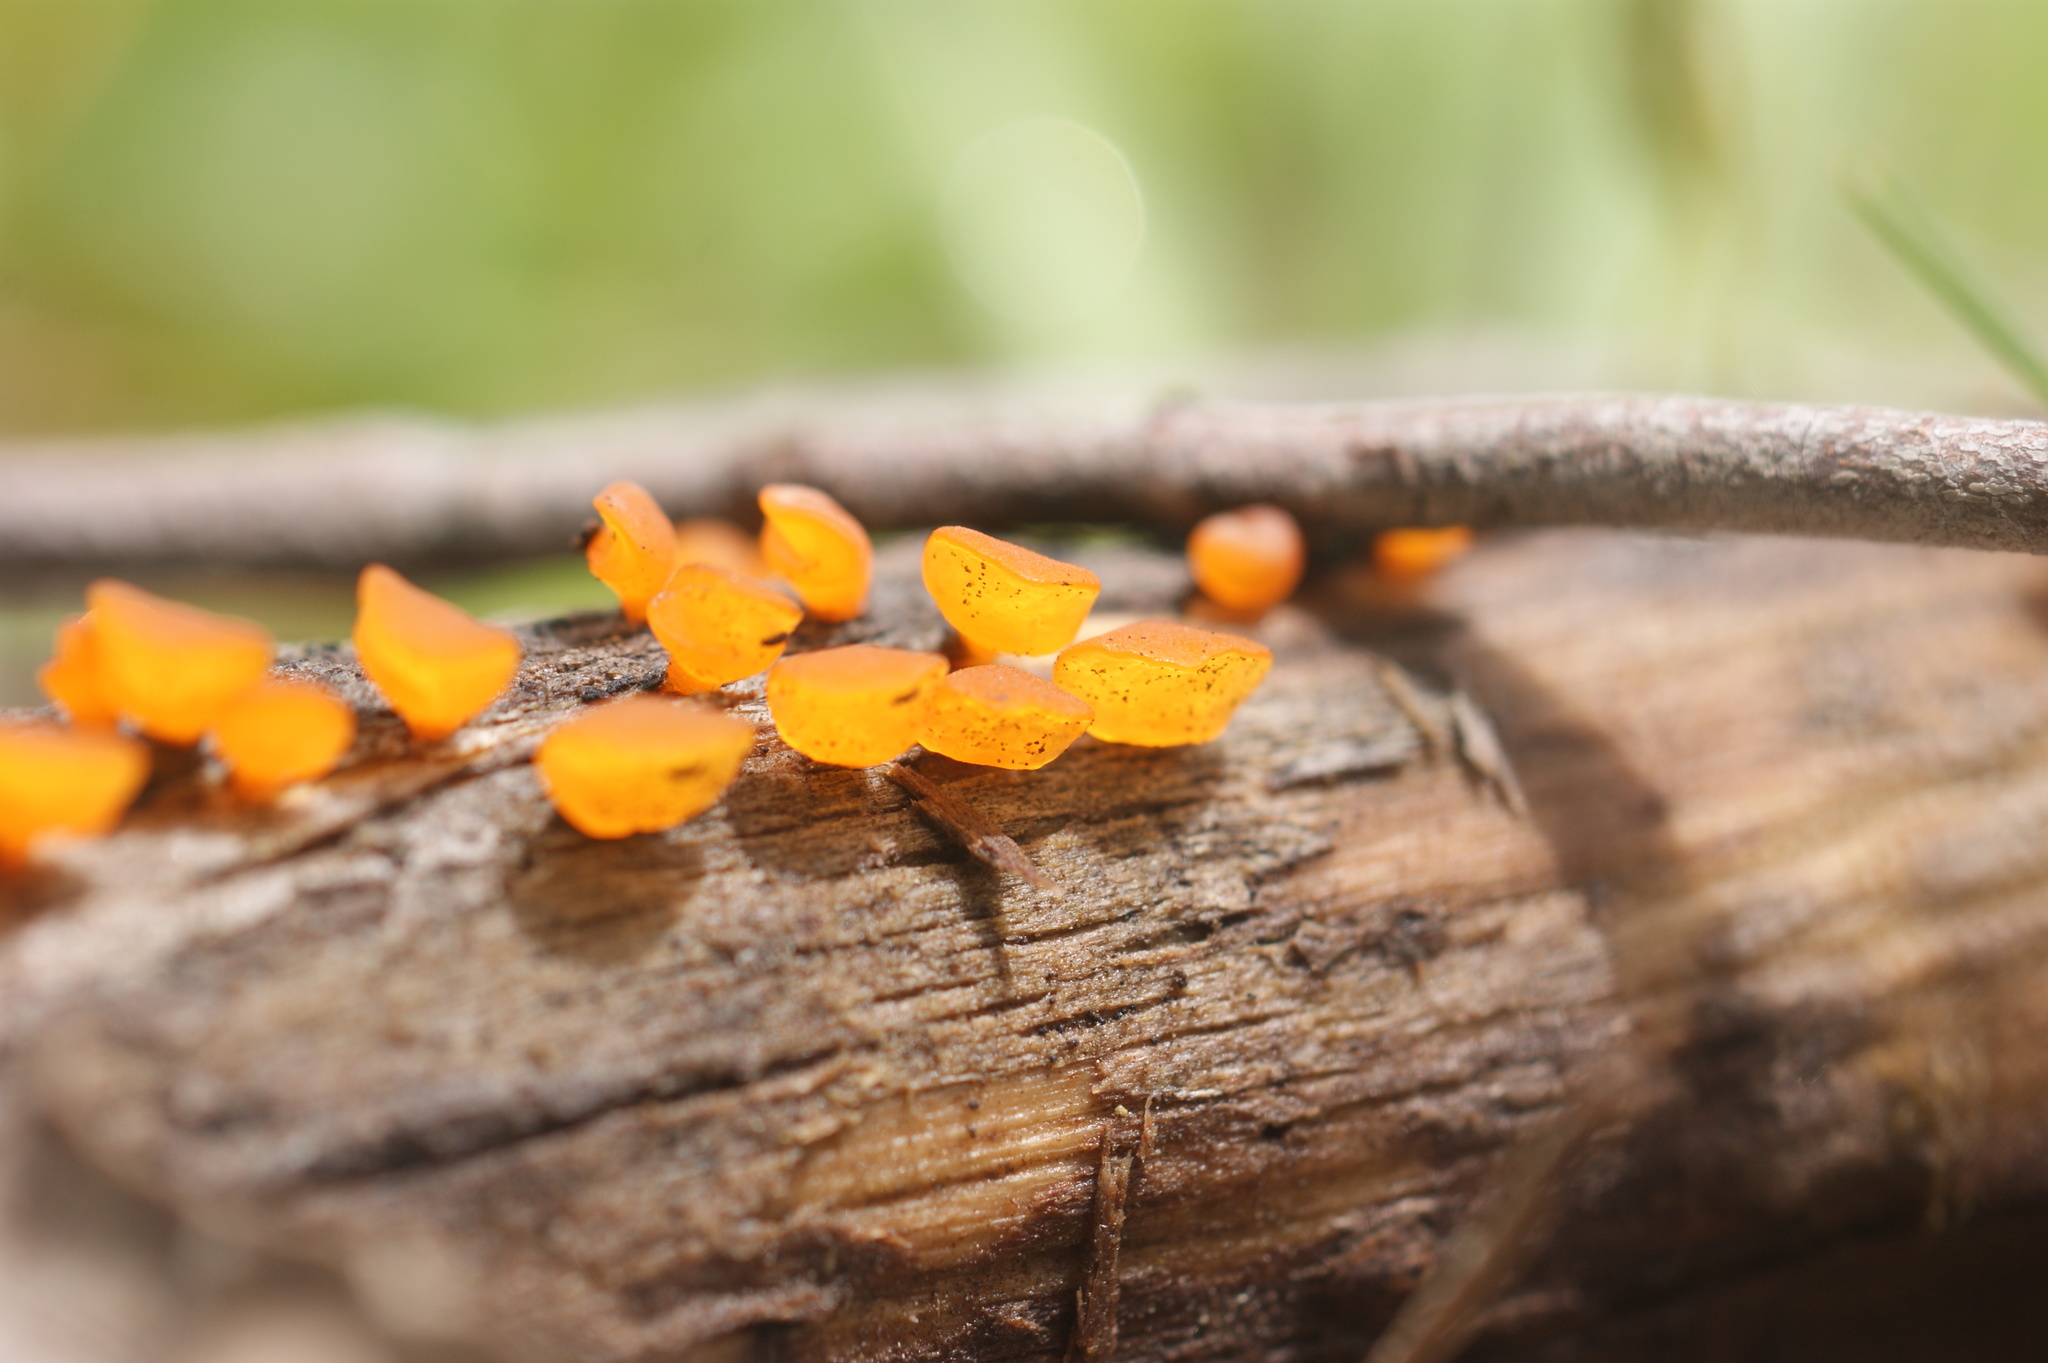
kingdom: Fungi
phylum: Basidiomycota
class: Dacrymycetes
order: Dacrymycetales
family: Dacrymycetaceae
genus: Heterotextus
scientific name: Heterotextus peziziformis
